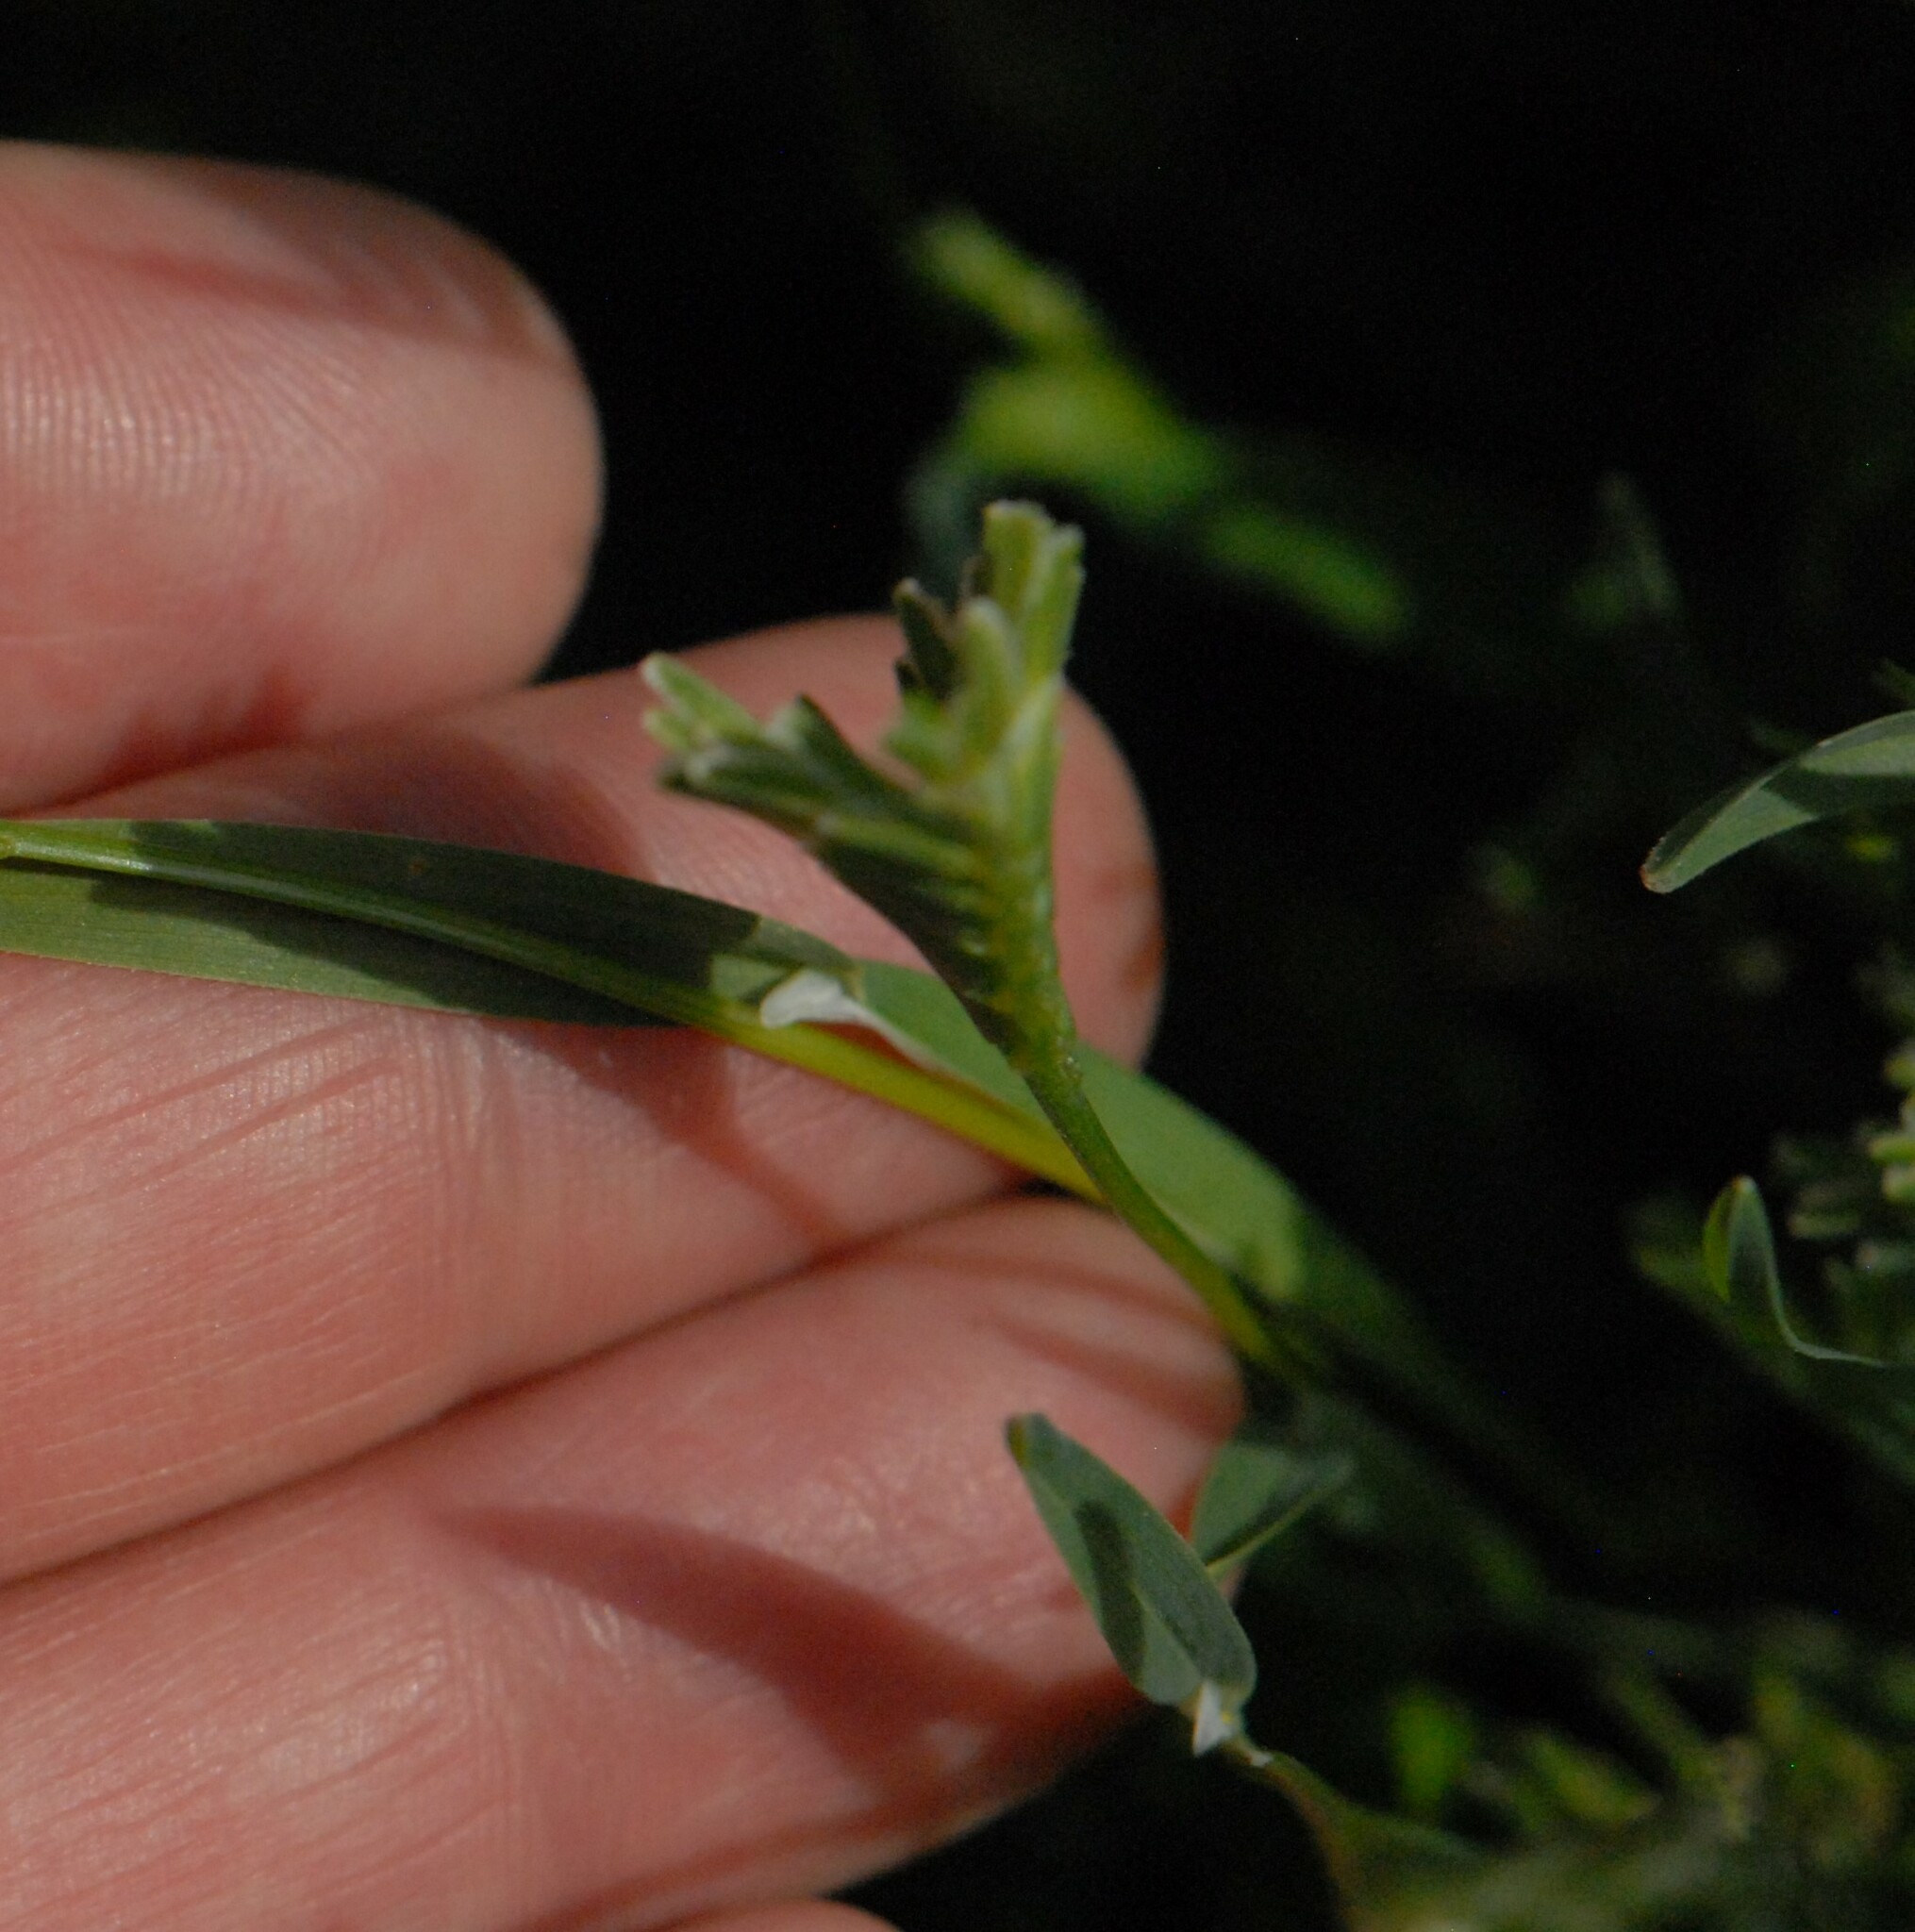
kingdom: Plantae
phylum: Tracheophyta
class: Liliopsida
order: Poales
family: Poaceae
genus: Sclerochloa
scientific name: Sclerochloa dura
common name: Common hardgrass
